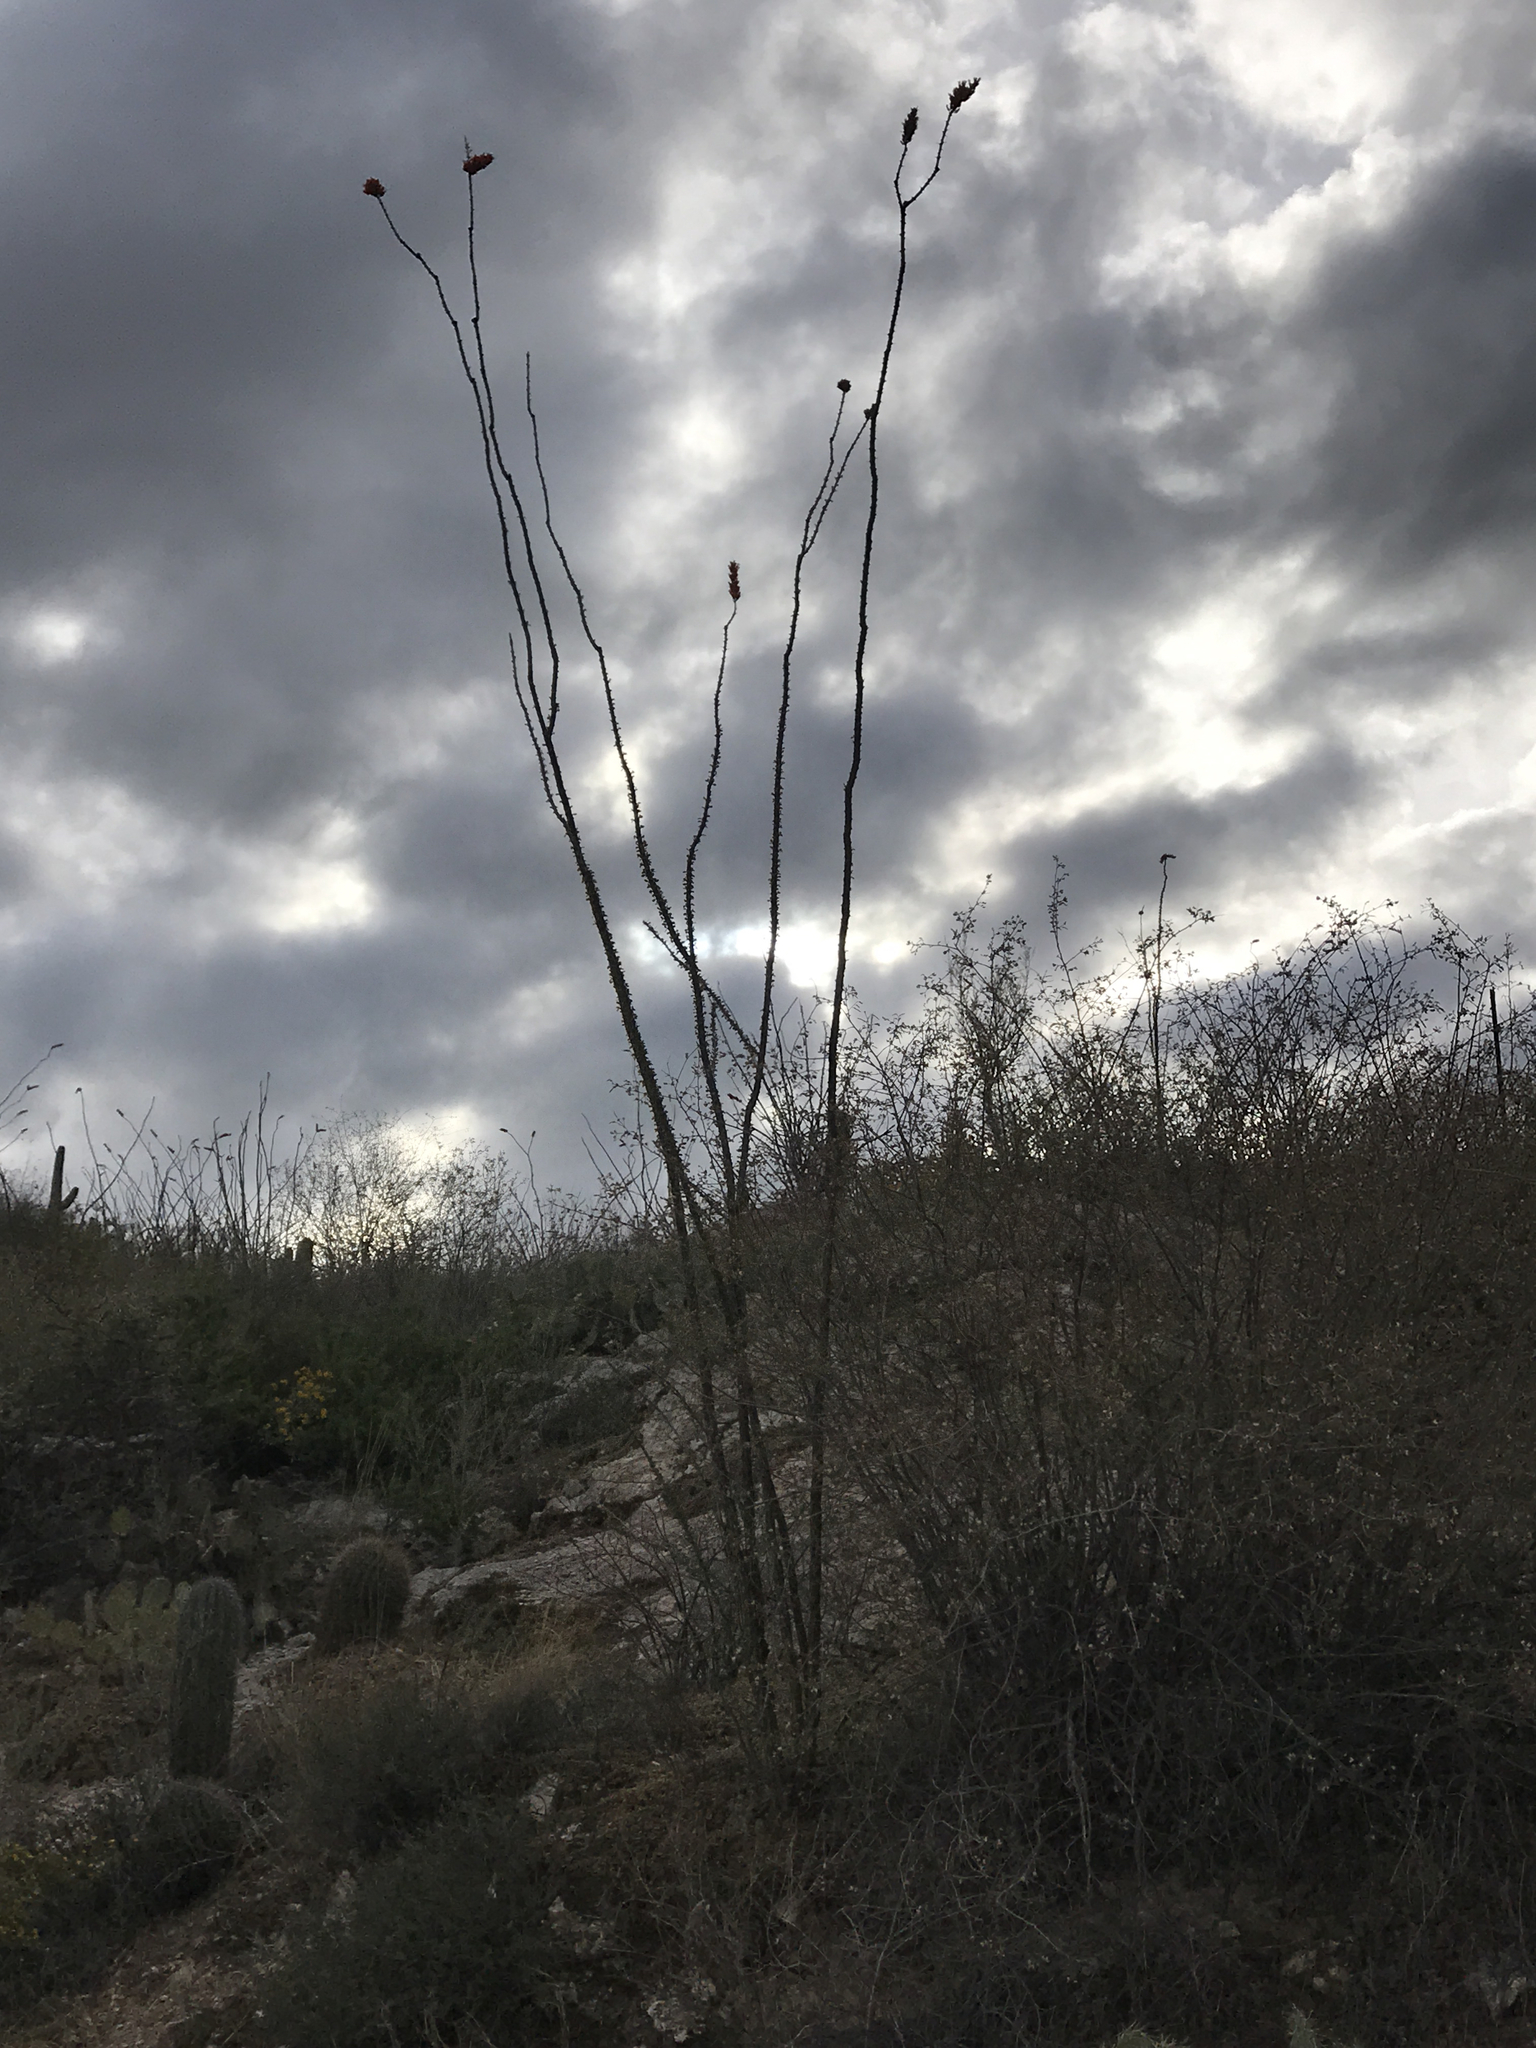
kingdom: Plantae
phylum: Tracheophyta
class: Magnoliopsida
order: Ericales
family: Fouquieriaceae
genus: Fouquieria
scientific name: Fouquieria splendens
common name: Vine-cactus
